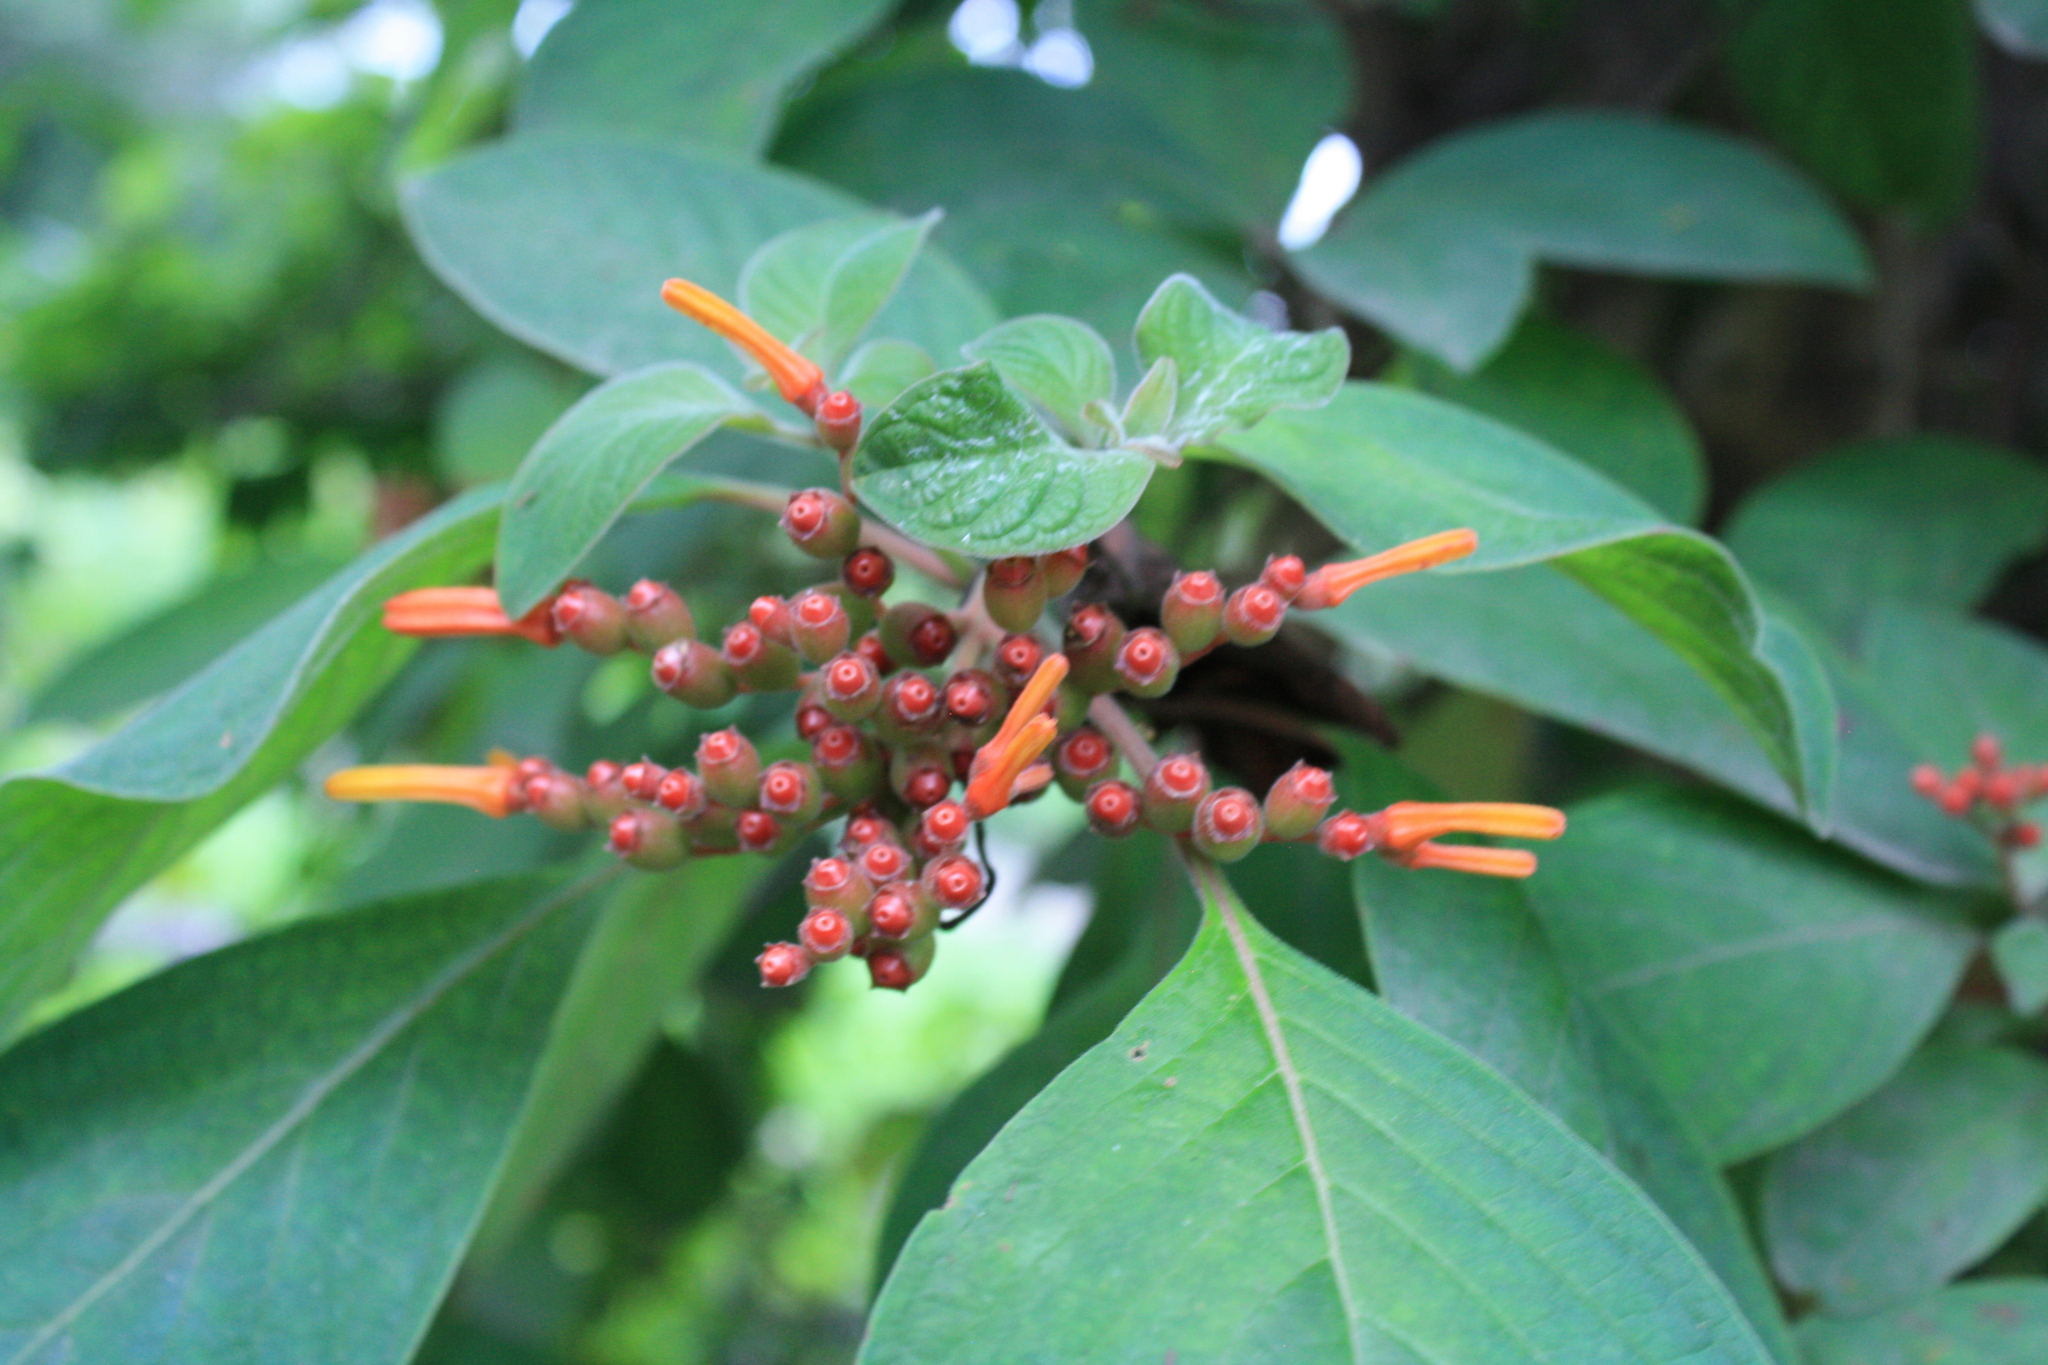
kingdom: Plantae
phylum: Tracheophyta
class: Magnoliopsida
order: Gentianales
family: Rubiaceae
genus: Hamelia
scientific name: Hamelia patens
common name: Redhead
